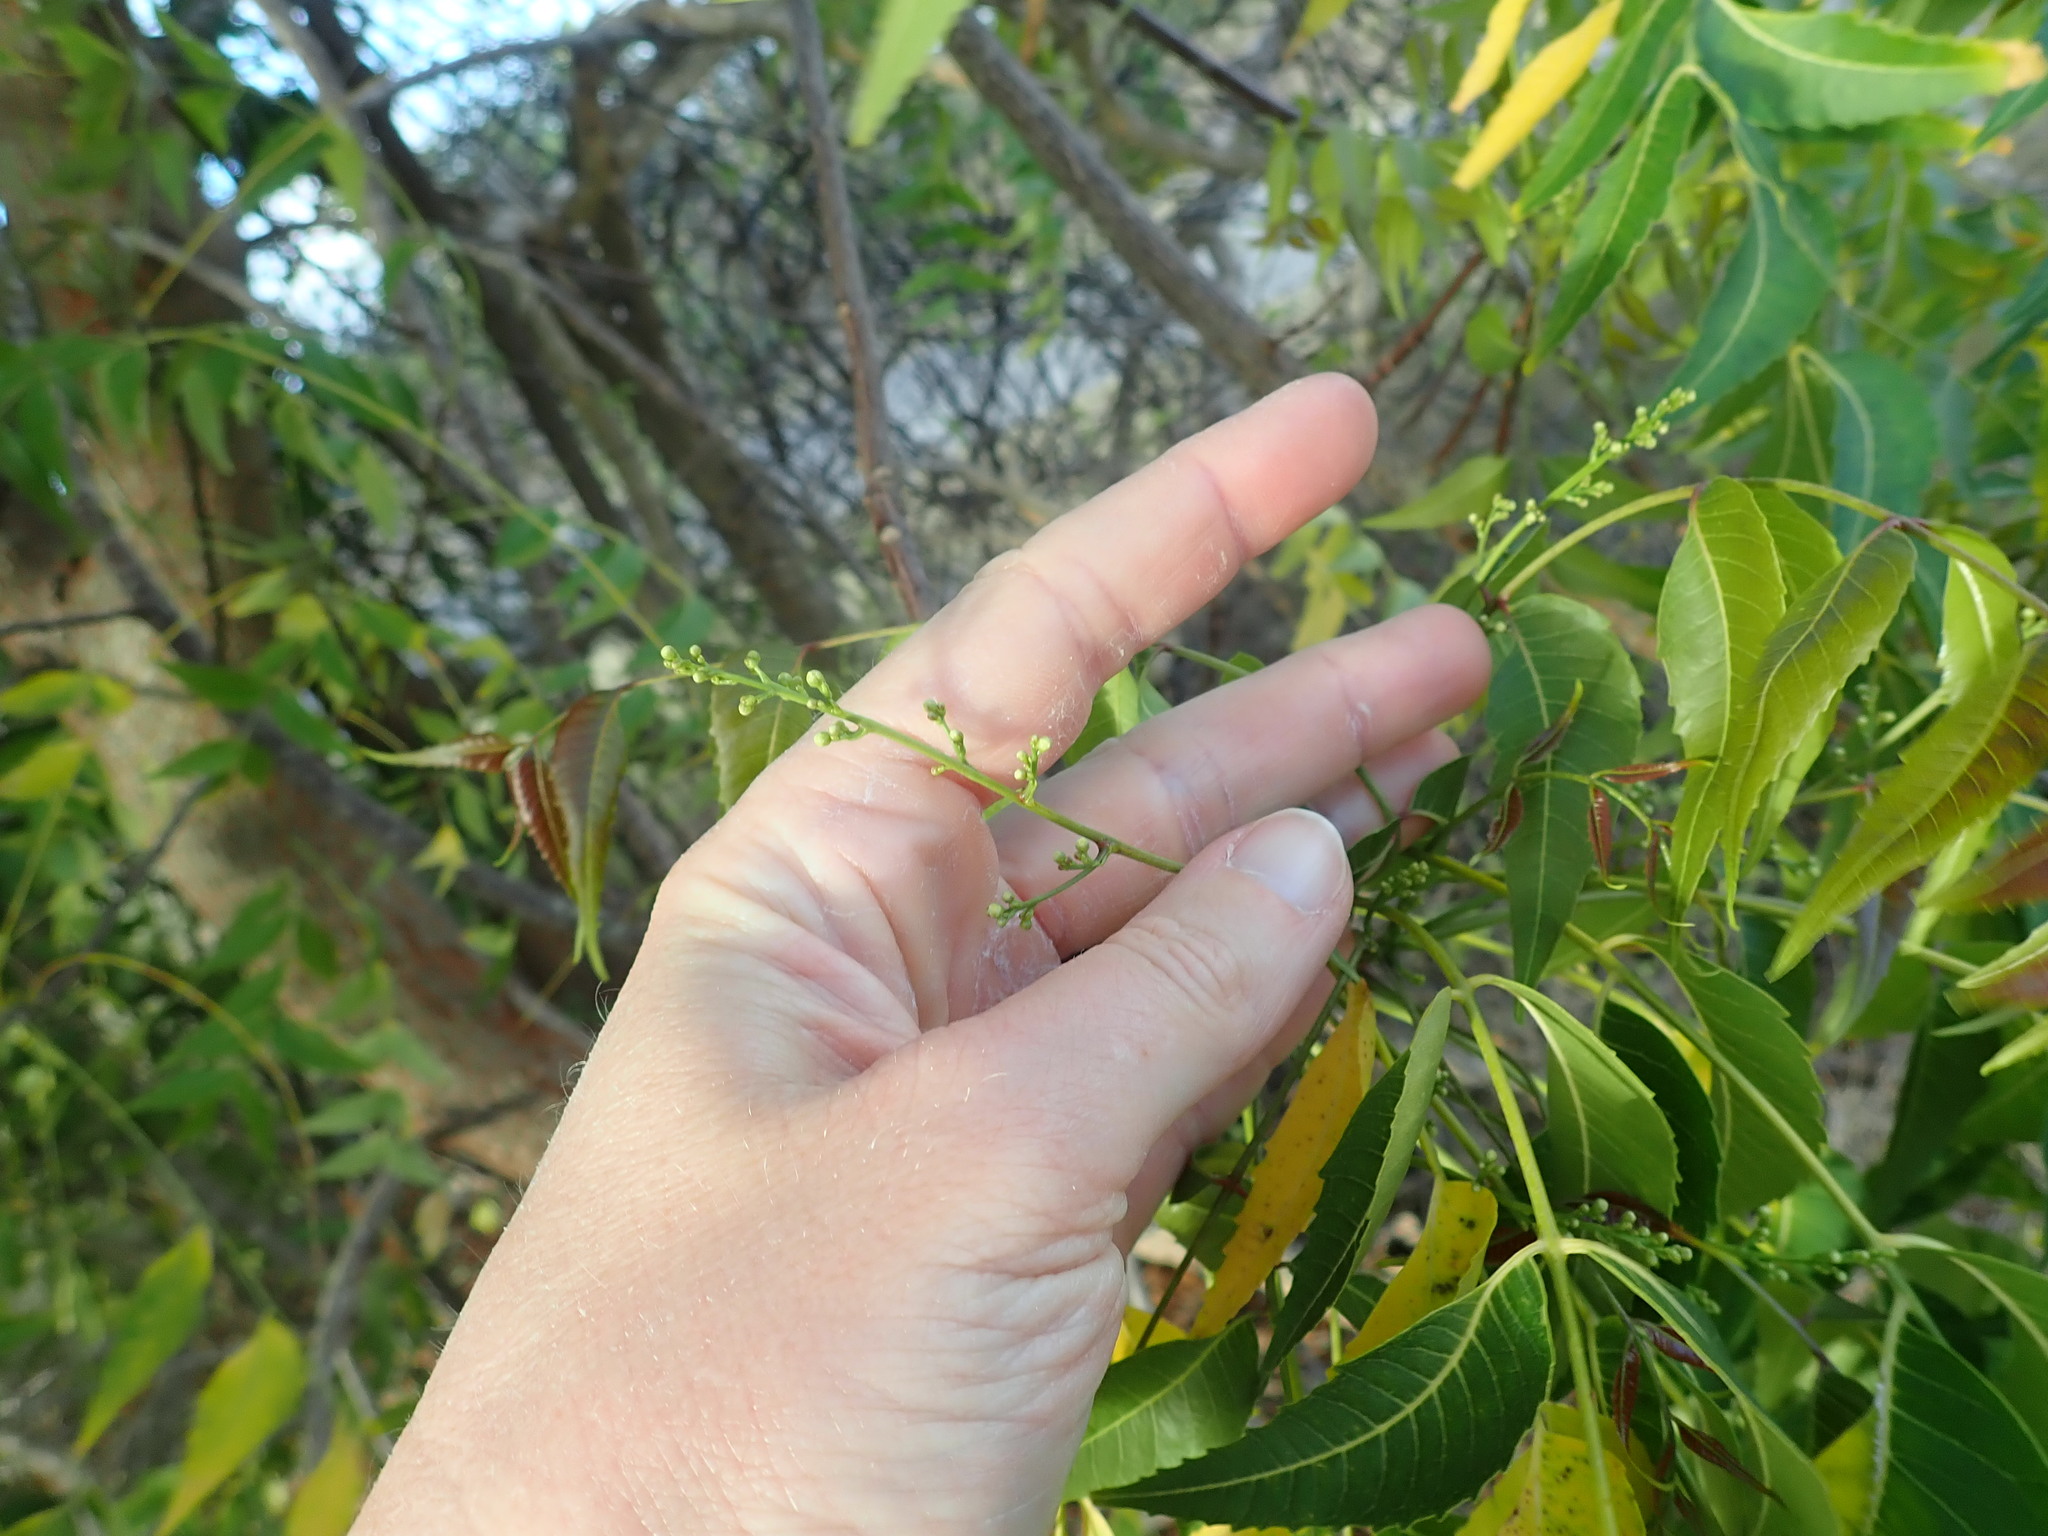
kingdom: Plantae
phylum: Tracheophyta
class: Magnoliopsida
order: Sapindales
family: Meliaceae
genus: Azadirachta
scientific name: Azadirachta indica
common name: Neem
